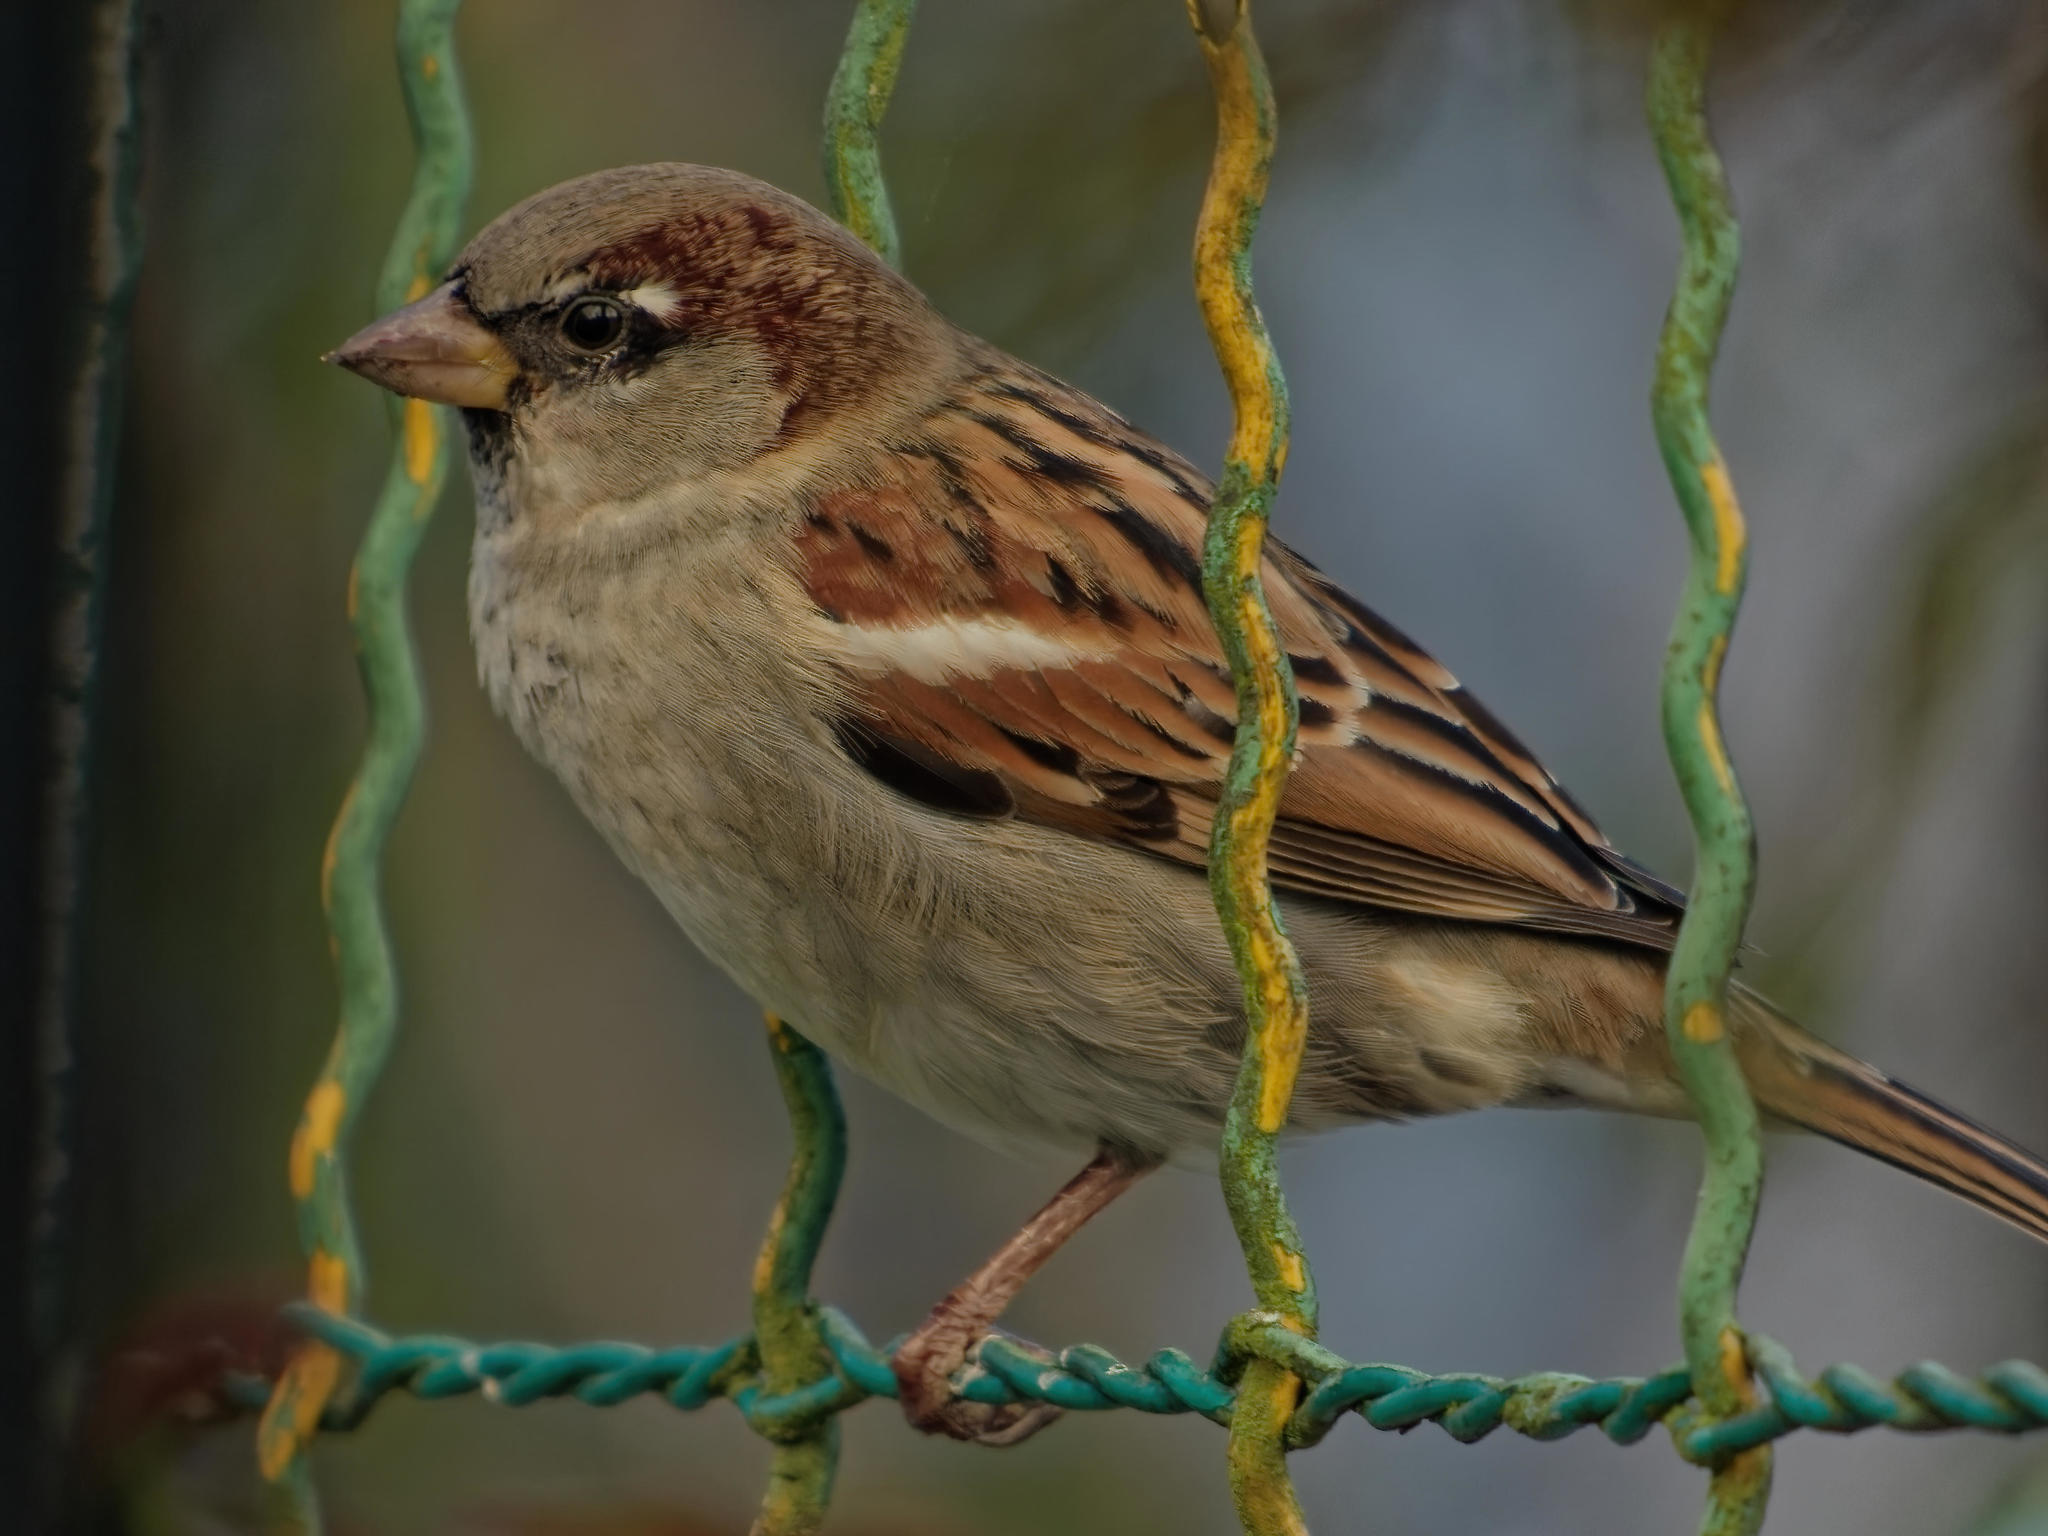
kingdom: Animalia
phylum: Chordata
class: Aves
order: Passeriformes
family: Passeridae
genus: Passer
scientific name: Passer domesticus
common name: House sparrow
